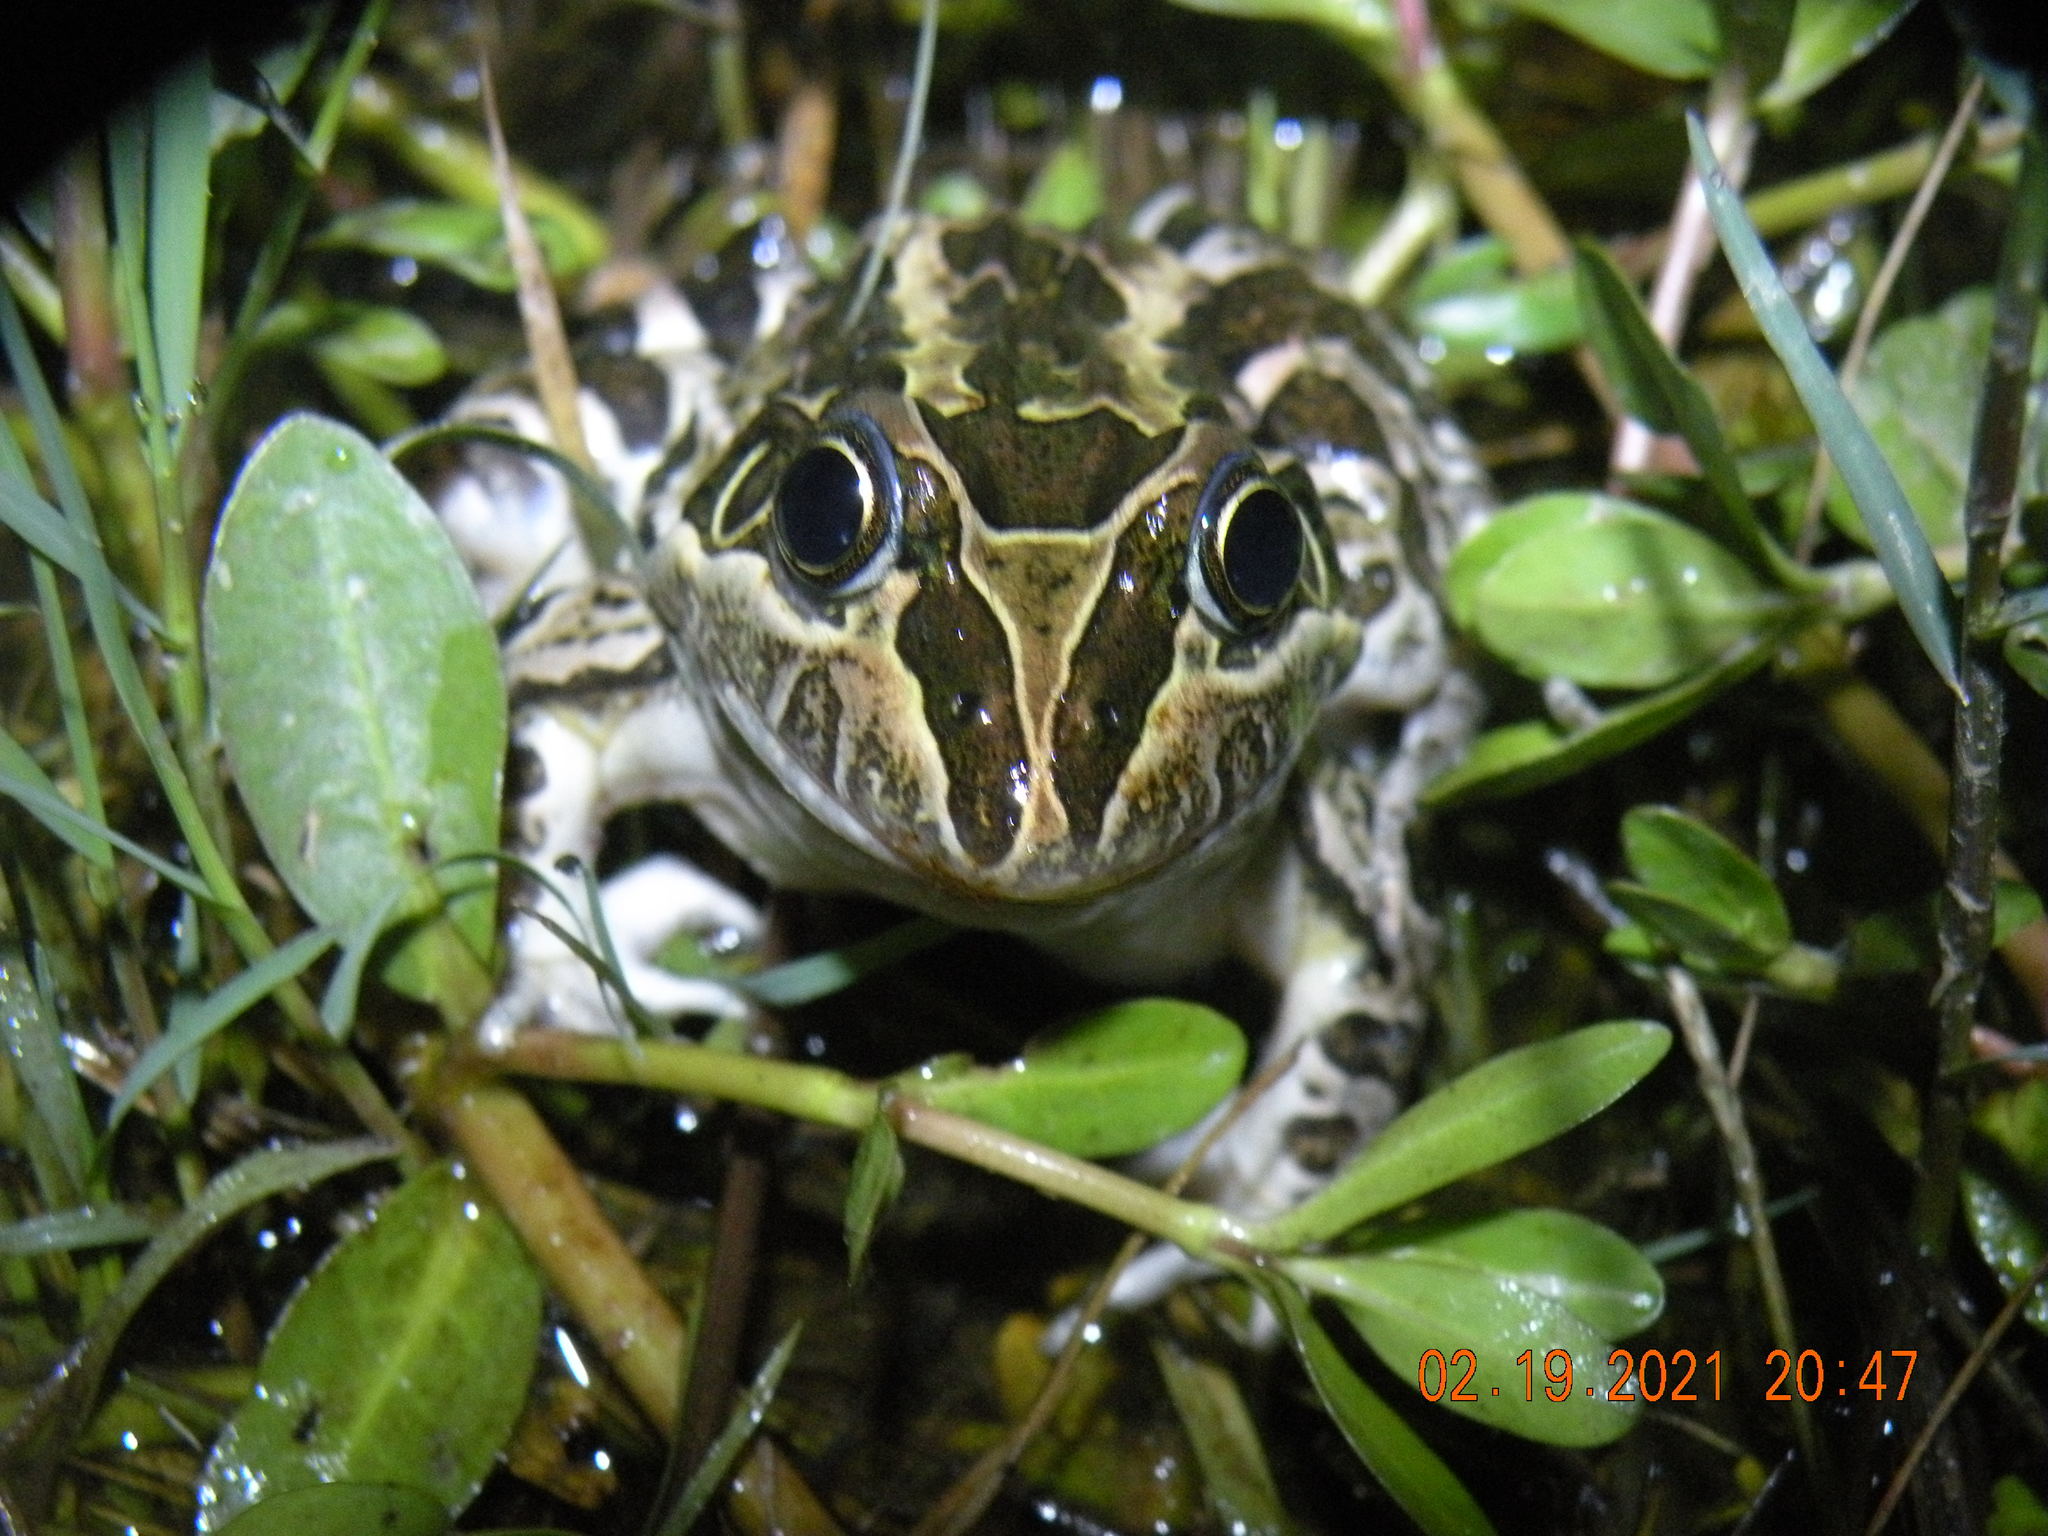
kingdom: Animalia
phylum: Chordata
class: Amphibia
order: Anura
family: Leptodactylidae
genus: Leptodactylus
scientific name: Leptodactylus luctator
